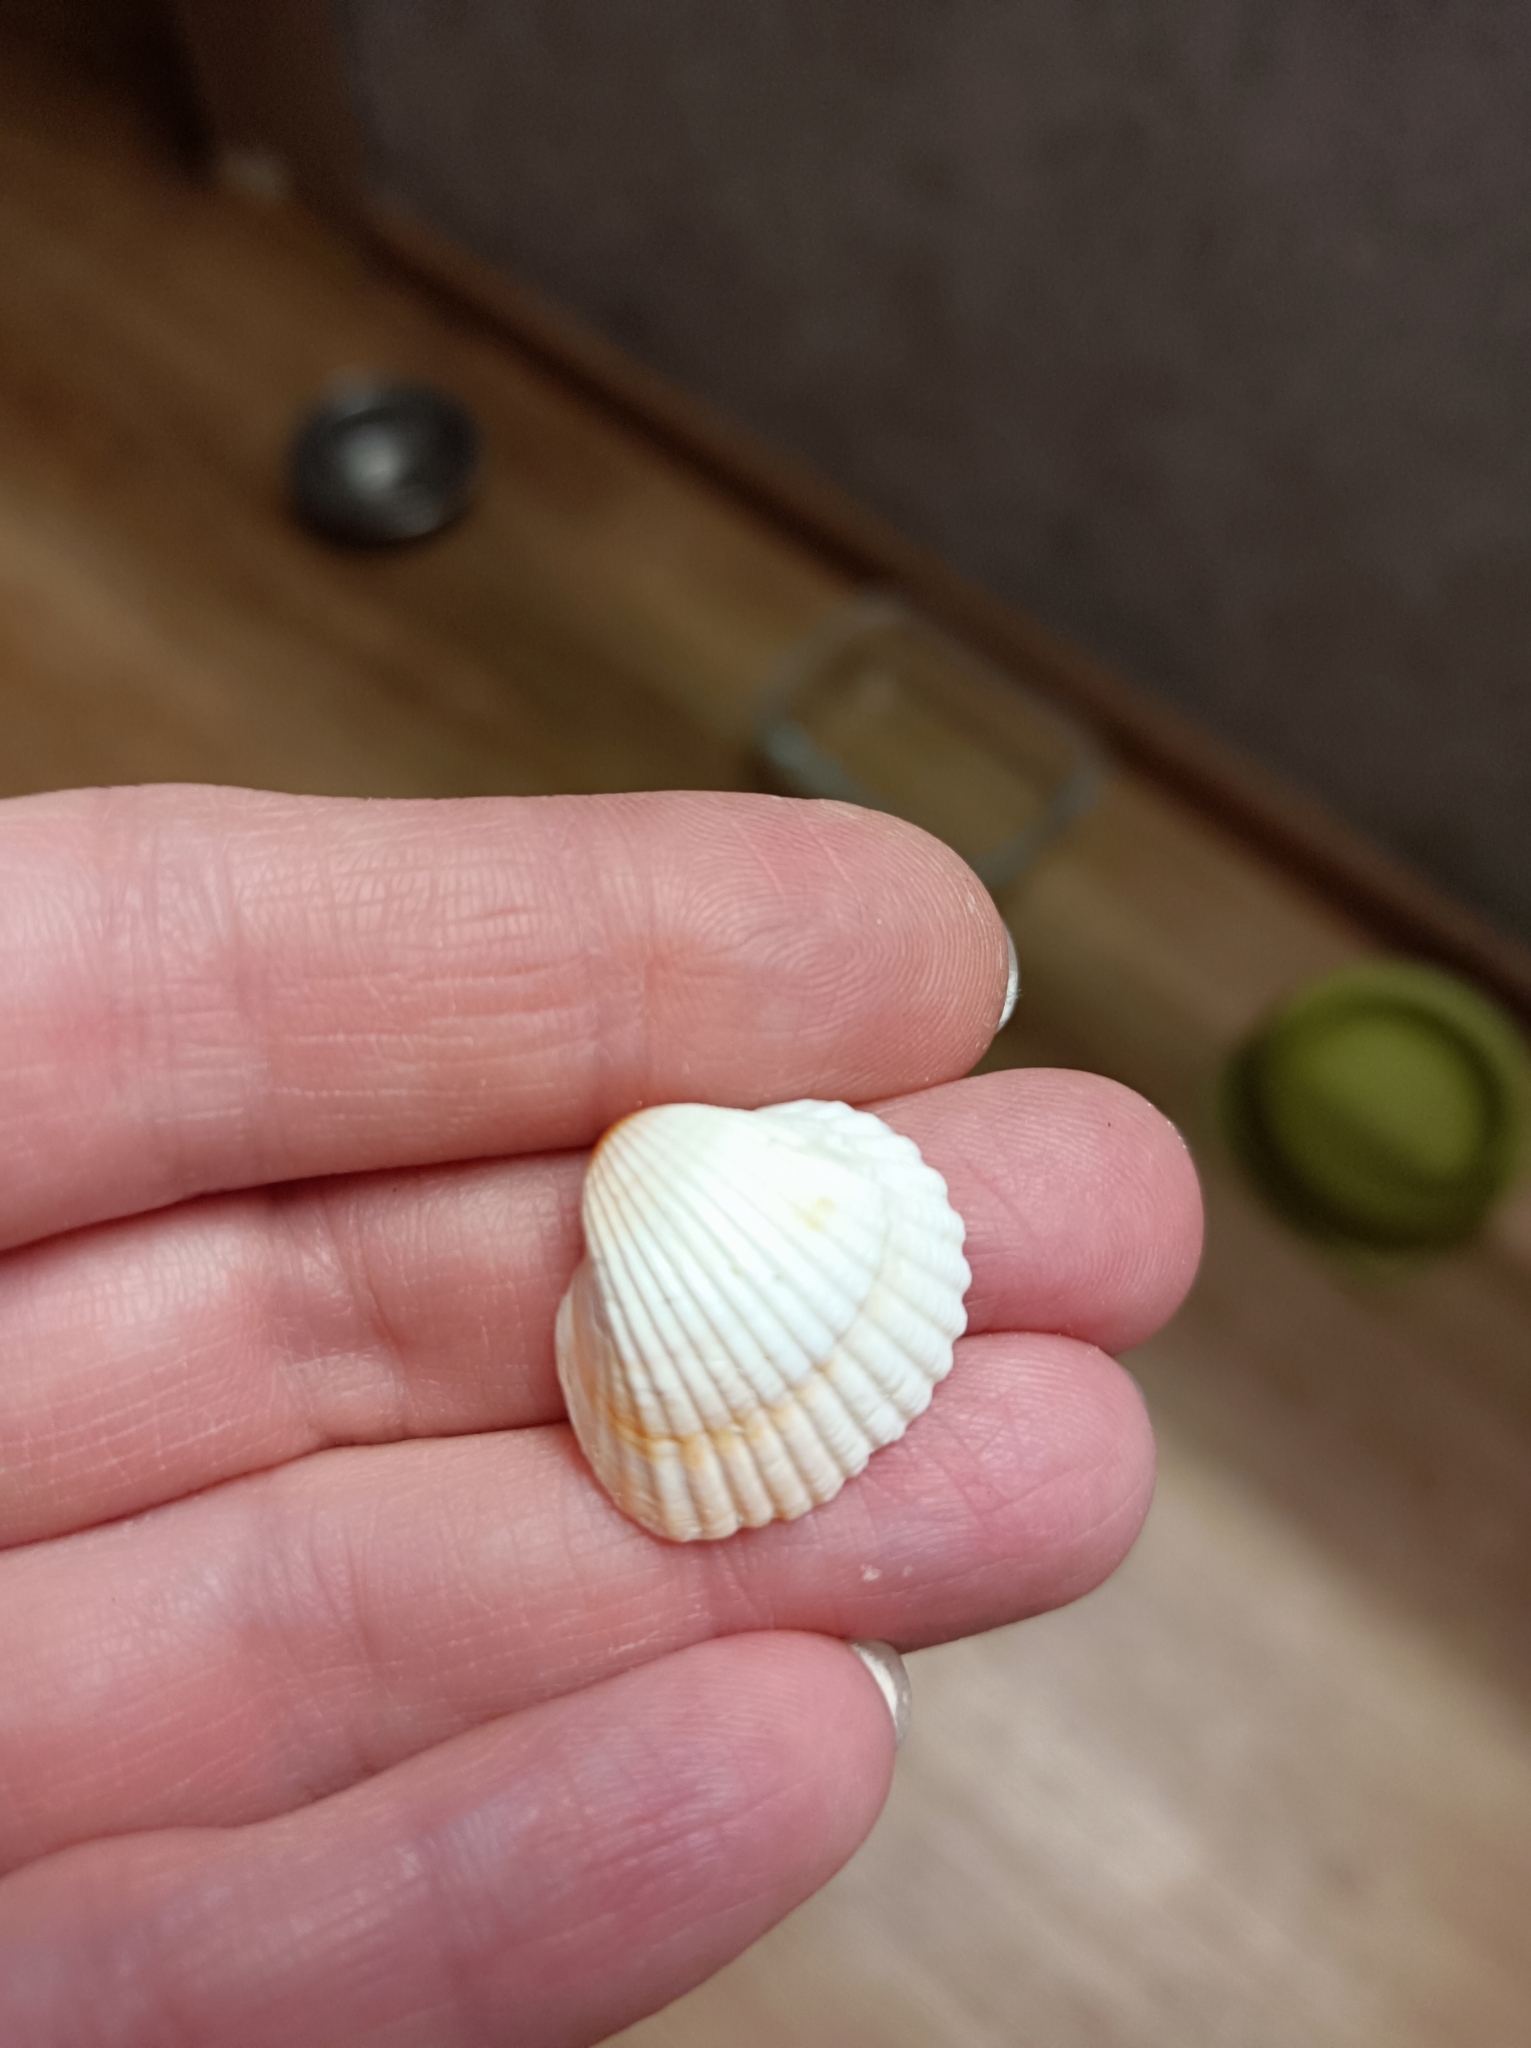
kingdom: Animalia
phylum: Mollusca
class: Bivalvia
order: Cardiida
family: Cardiidae
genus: Cerastoderma
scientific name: Cerastoderma glaucum
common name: Lagoon cockle
